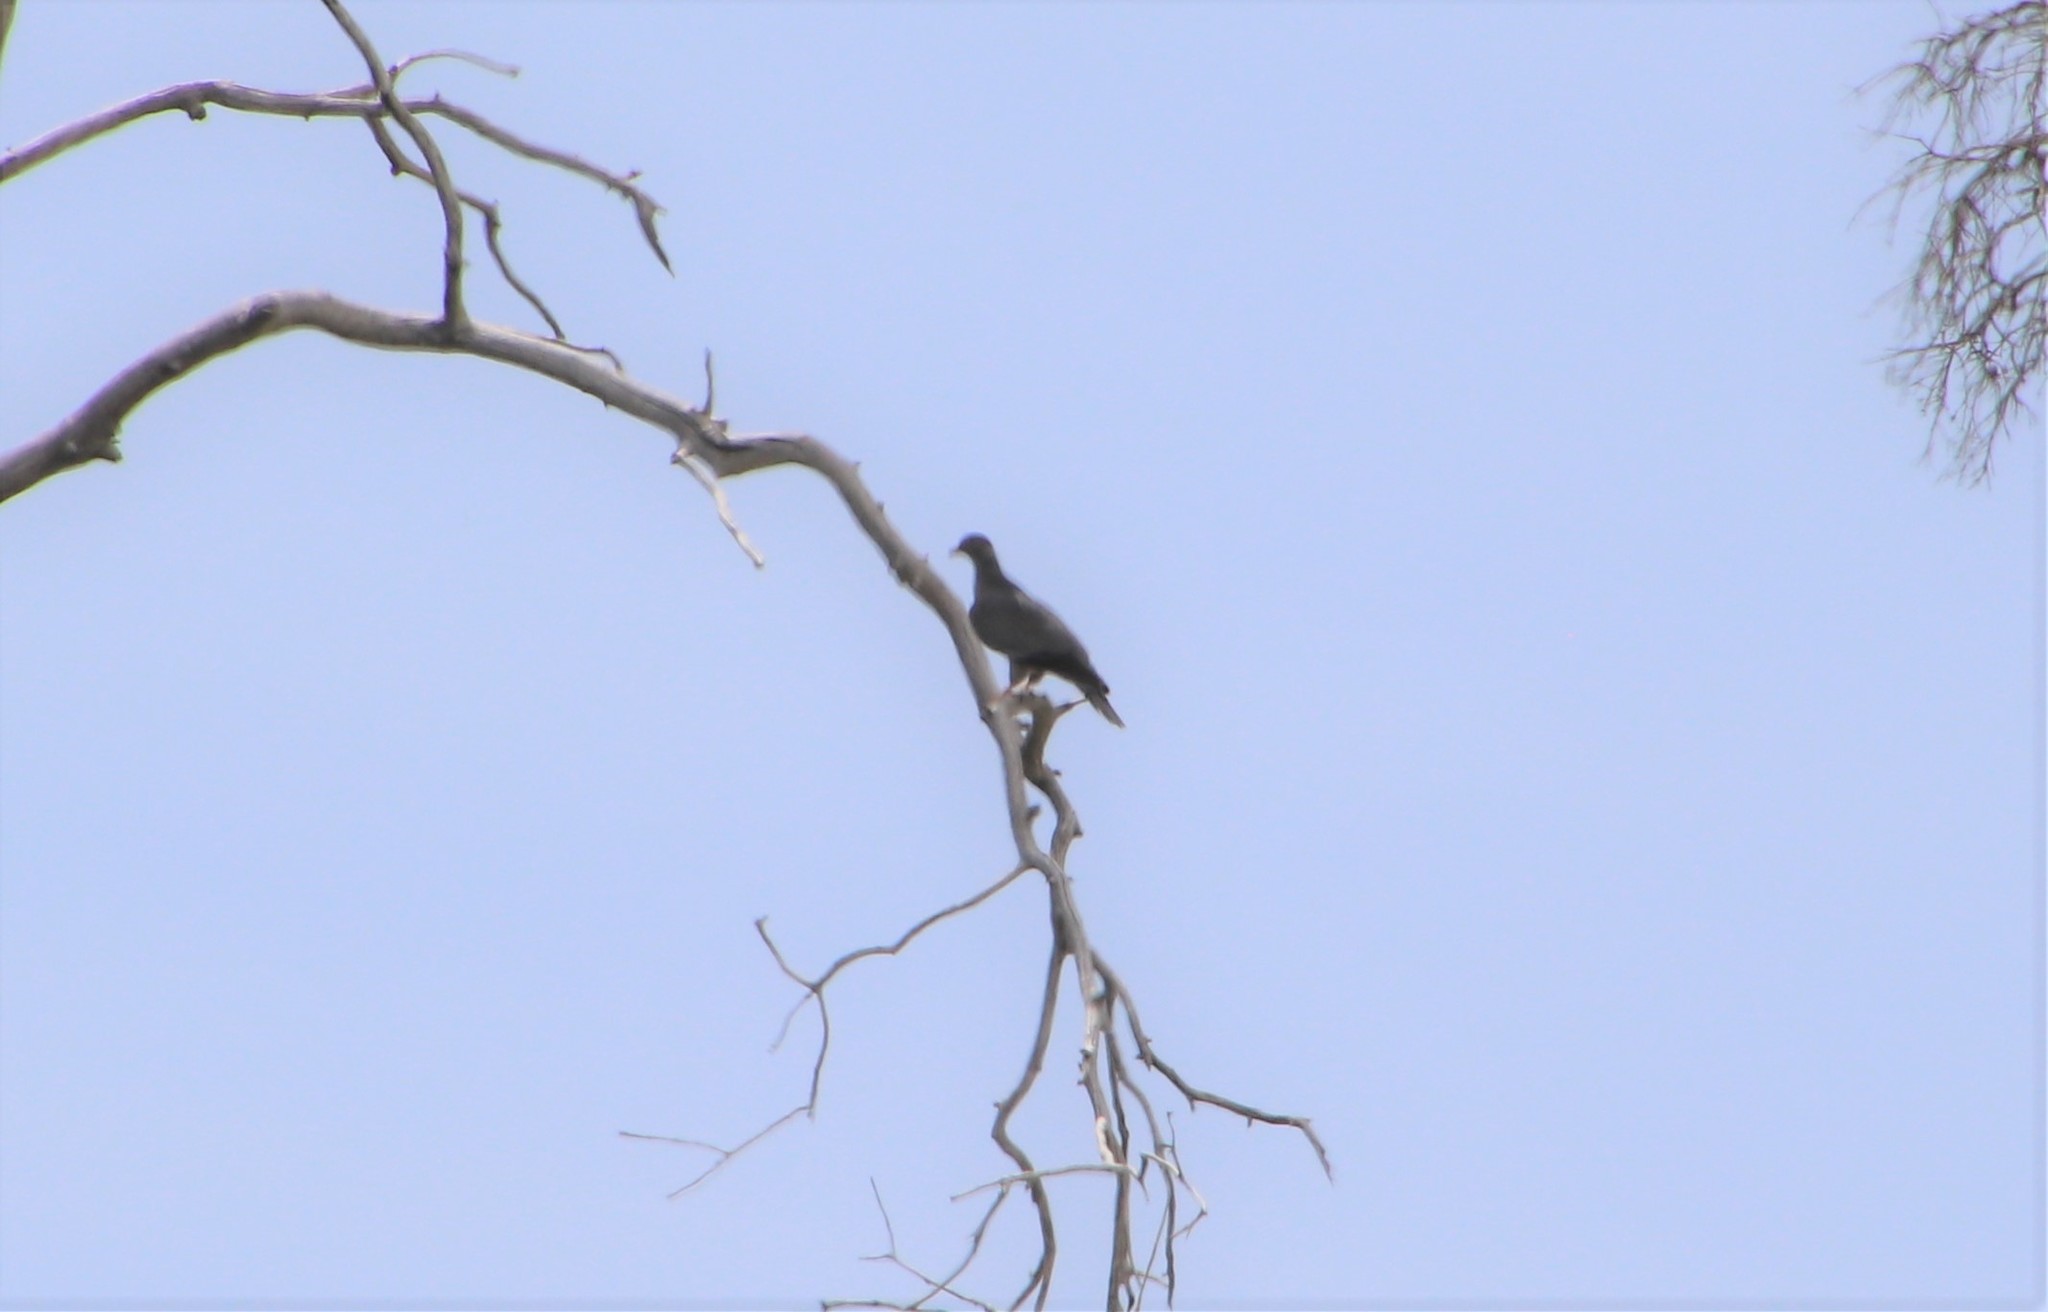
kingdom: Animalia
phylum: Chordata
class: Aves
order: Columbiformes
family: Columbidae
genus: Patagioenas
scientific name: Patagioenas fasciata
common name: Band-tailed pigeon
